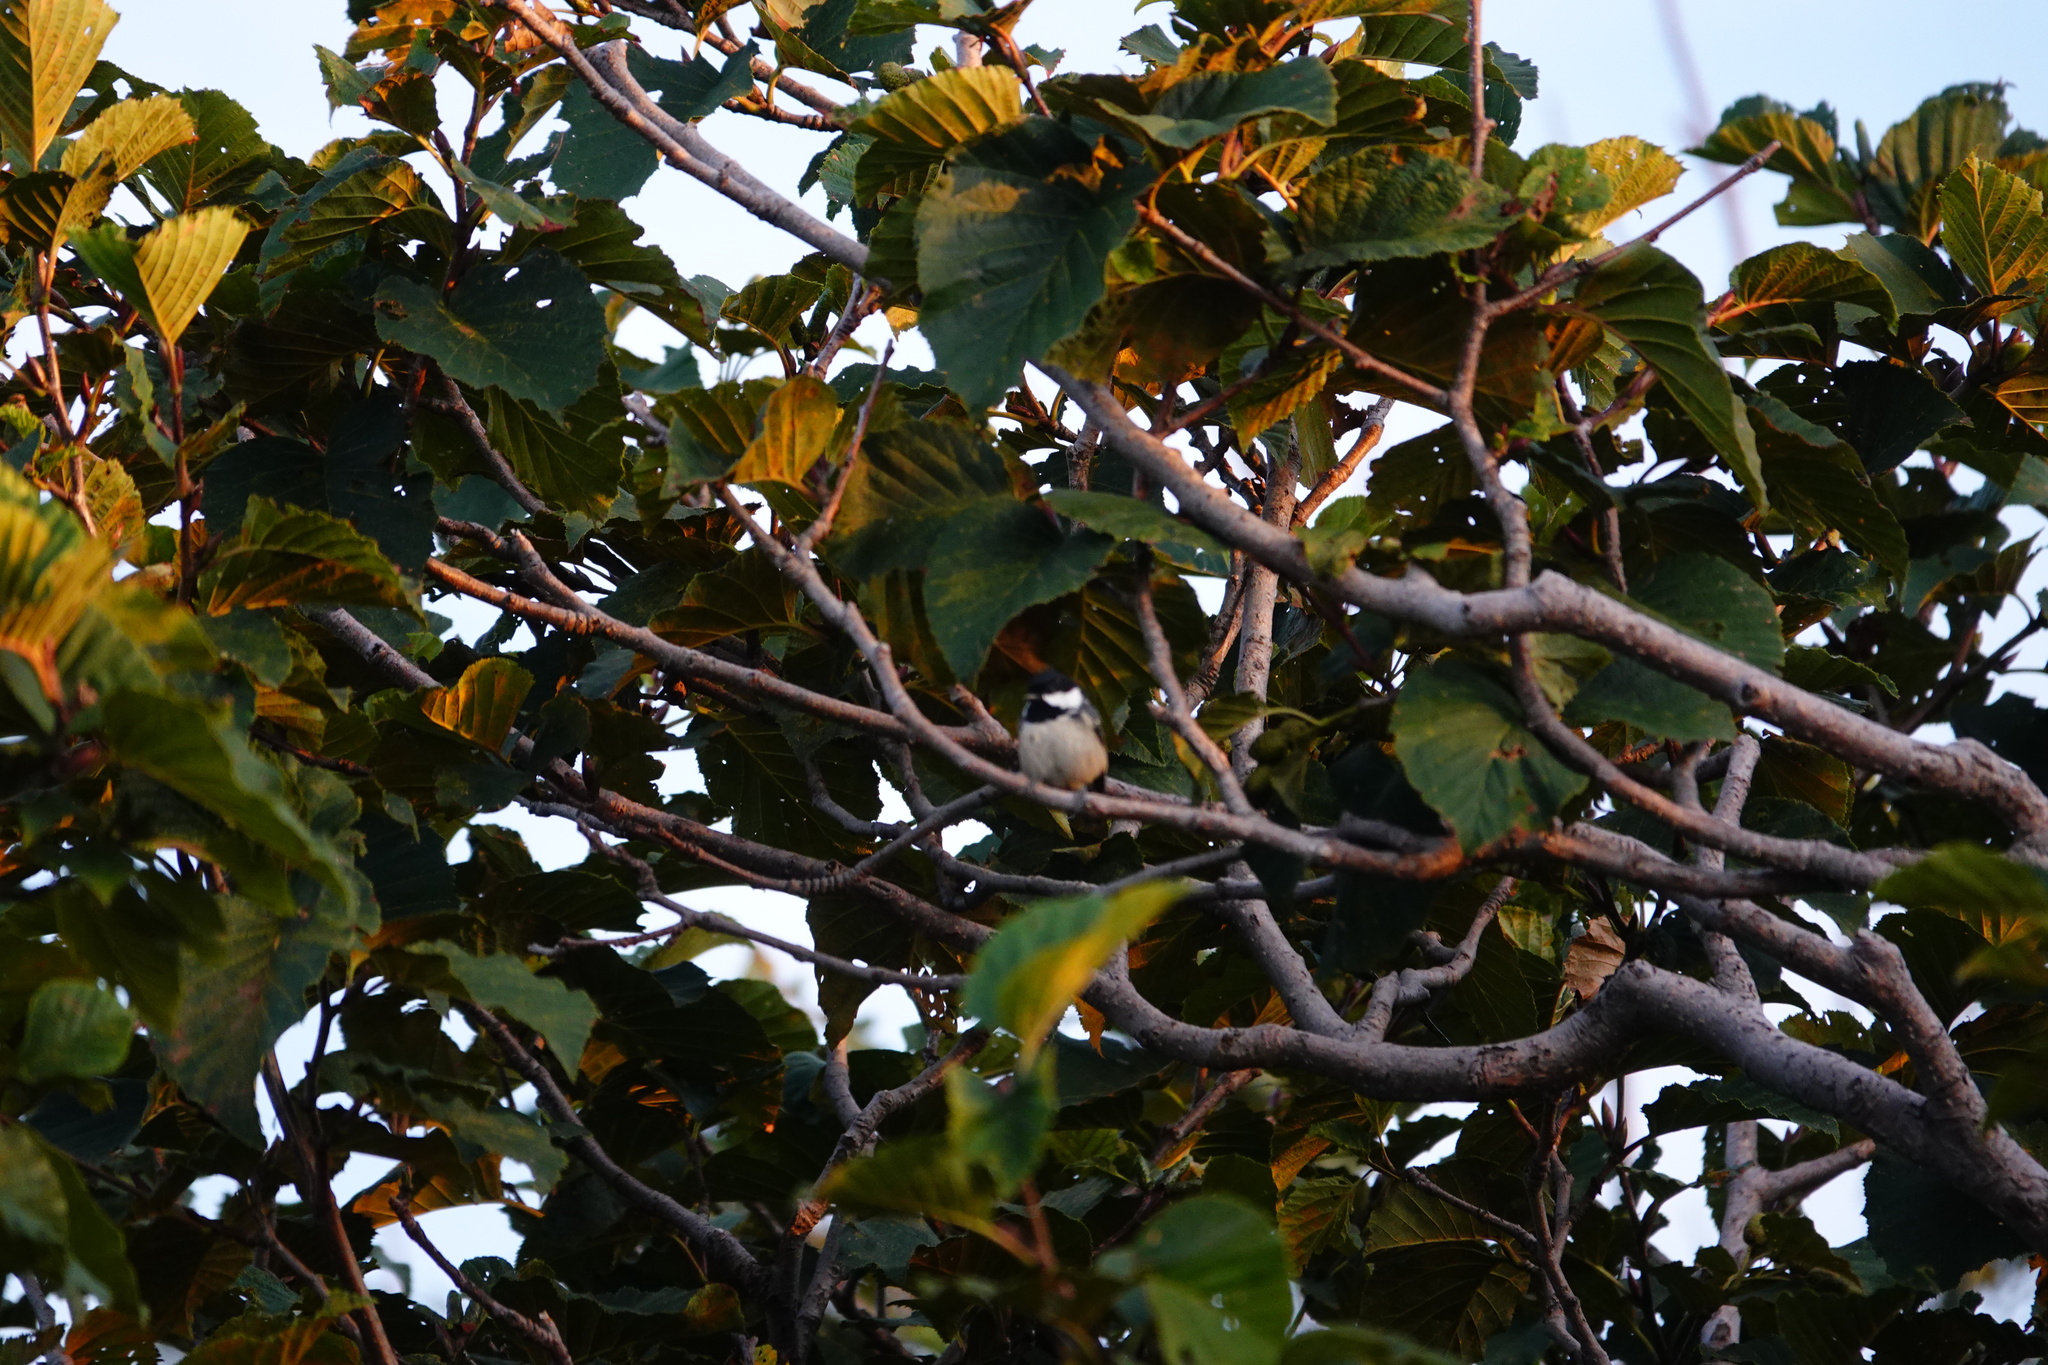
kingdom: Animalia
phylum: Chordata
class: Aves
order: Passeriformes
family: Paridae
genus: Periparus
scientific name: Periparus ater
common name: Coal tit
